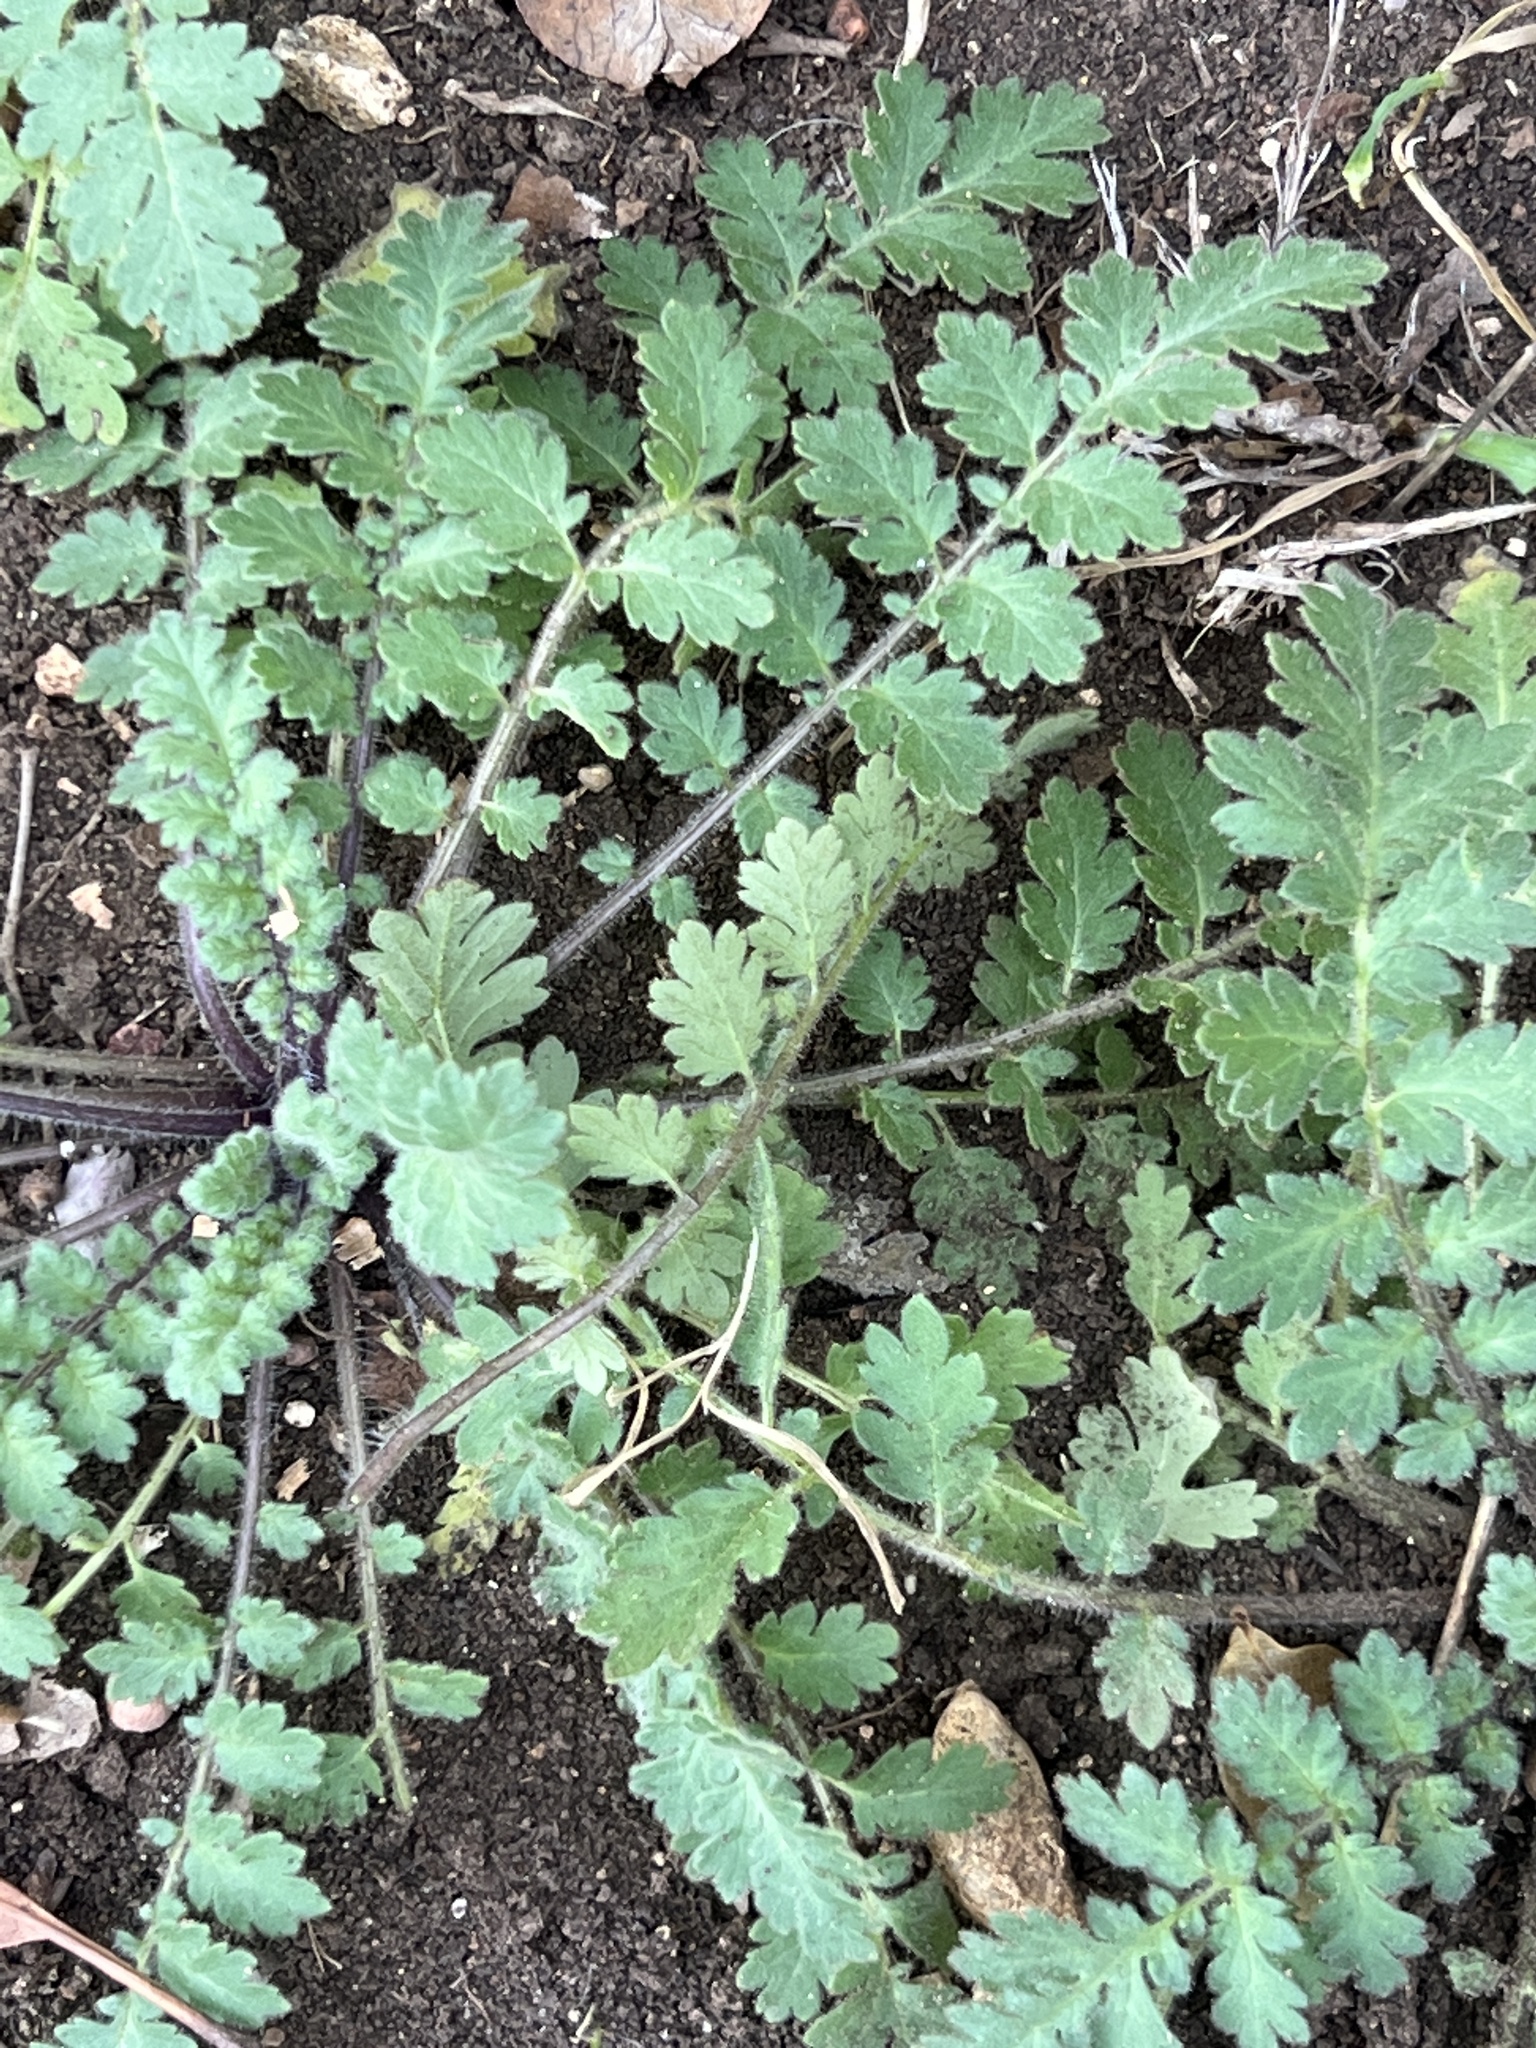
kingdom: Plantae
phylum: Tracheophyta
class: Magnoliopsida
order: Boraginales
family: Hydrophyllaceae
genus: Phacelia
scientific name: Phacelia congesta
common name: Blue curls
